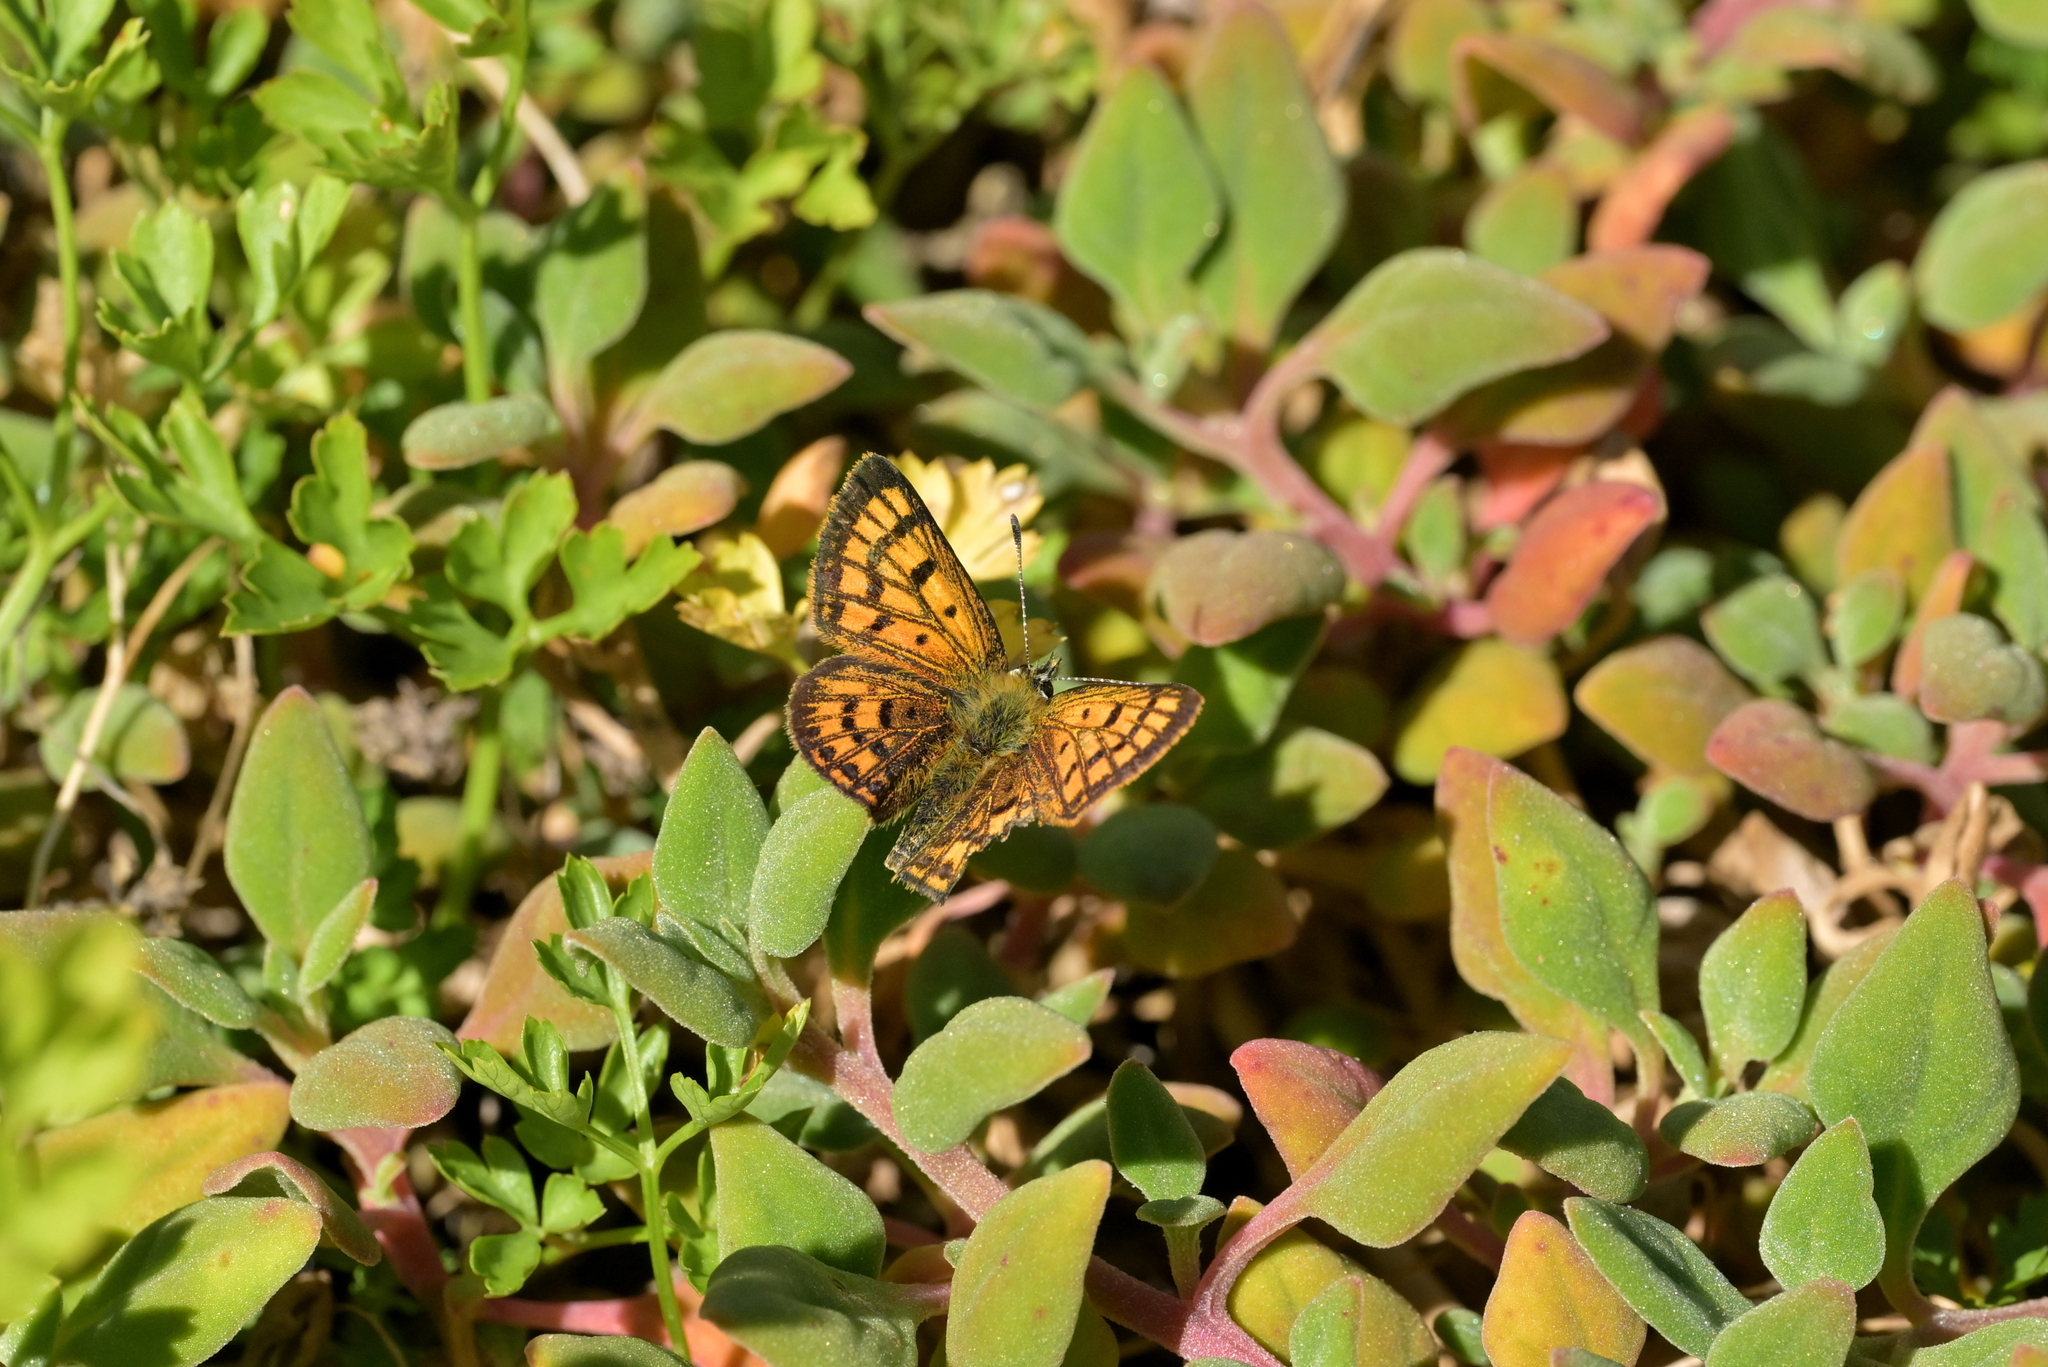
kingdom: Animalia
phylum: Arthropoda
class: Insecta
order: Lepidoptera
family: Lycaenidae
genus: Lycaena
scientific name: Lycaena salustius
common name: North island coastal copper
